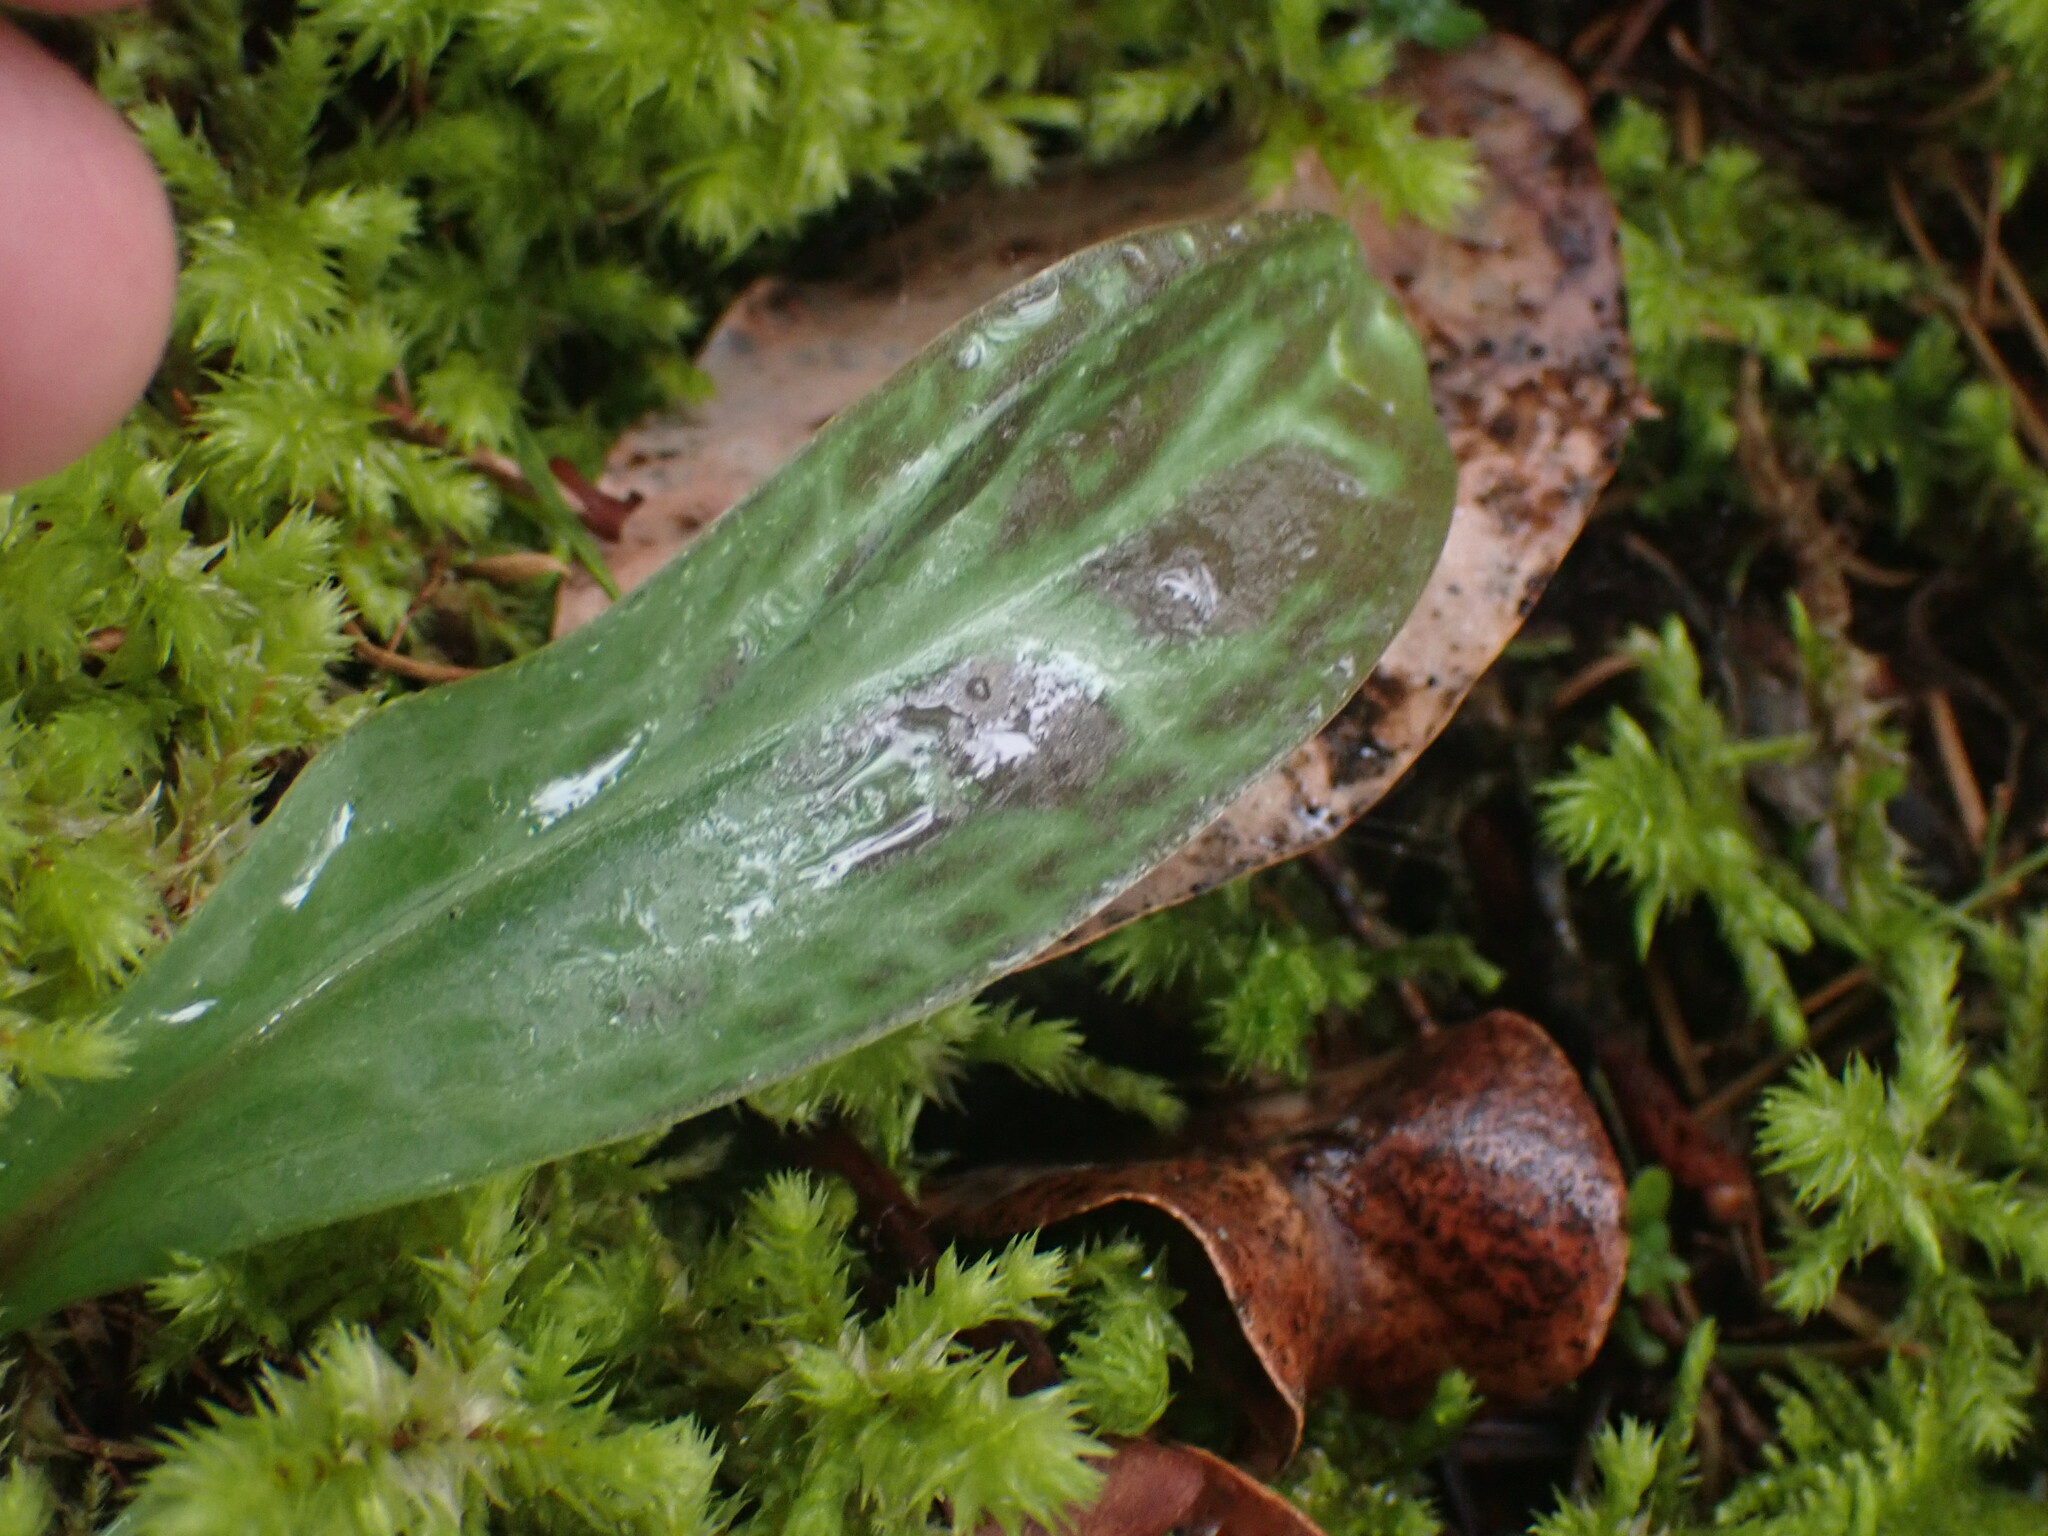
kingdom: Plantae
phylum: Tracheophyta
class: Liliopsida
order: Liliales
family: Liliaceae
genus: Erythronium
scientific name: Erythronium oregonum
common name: Giant adder's-tongue
